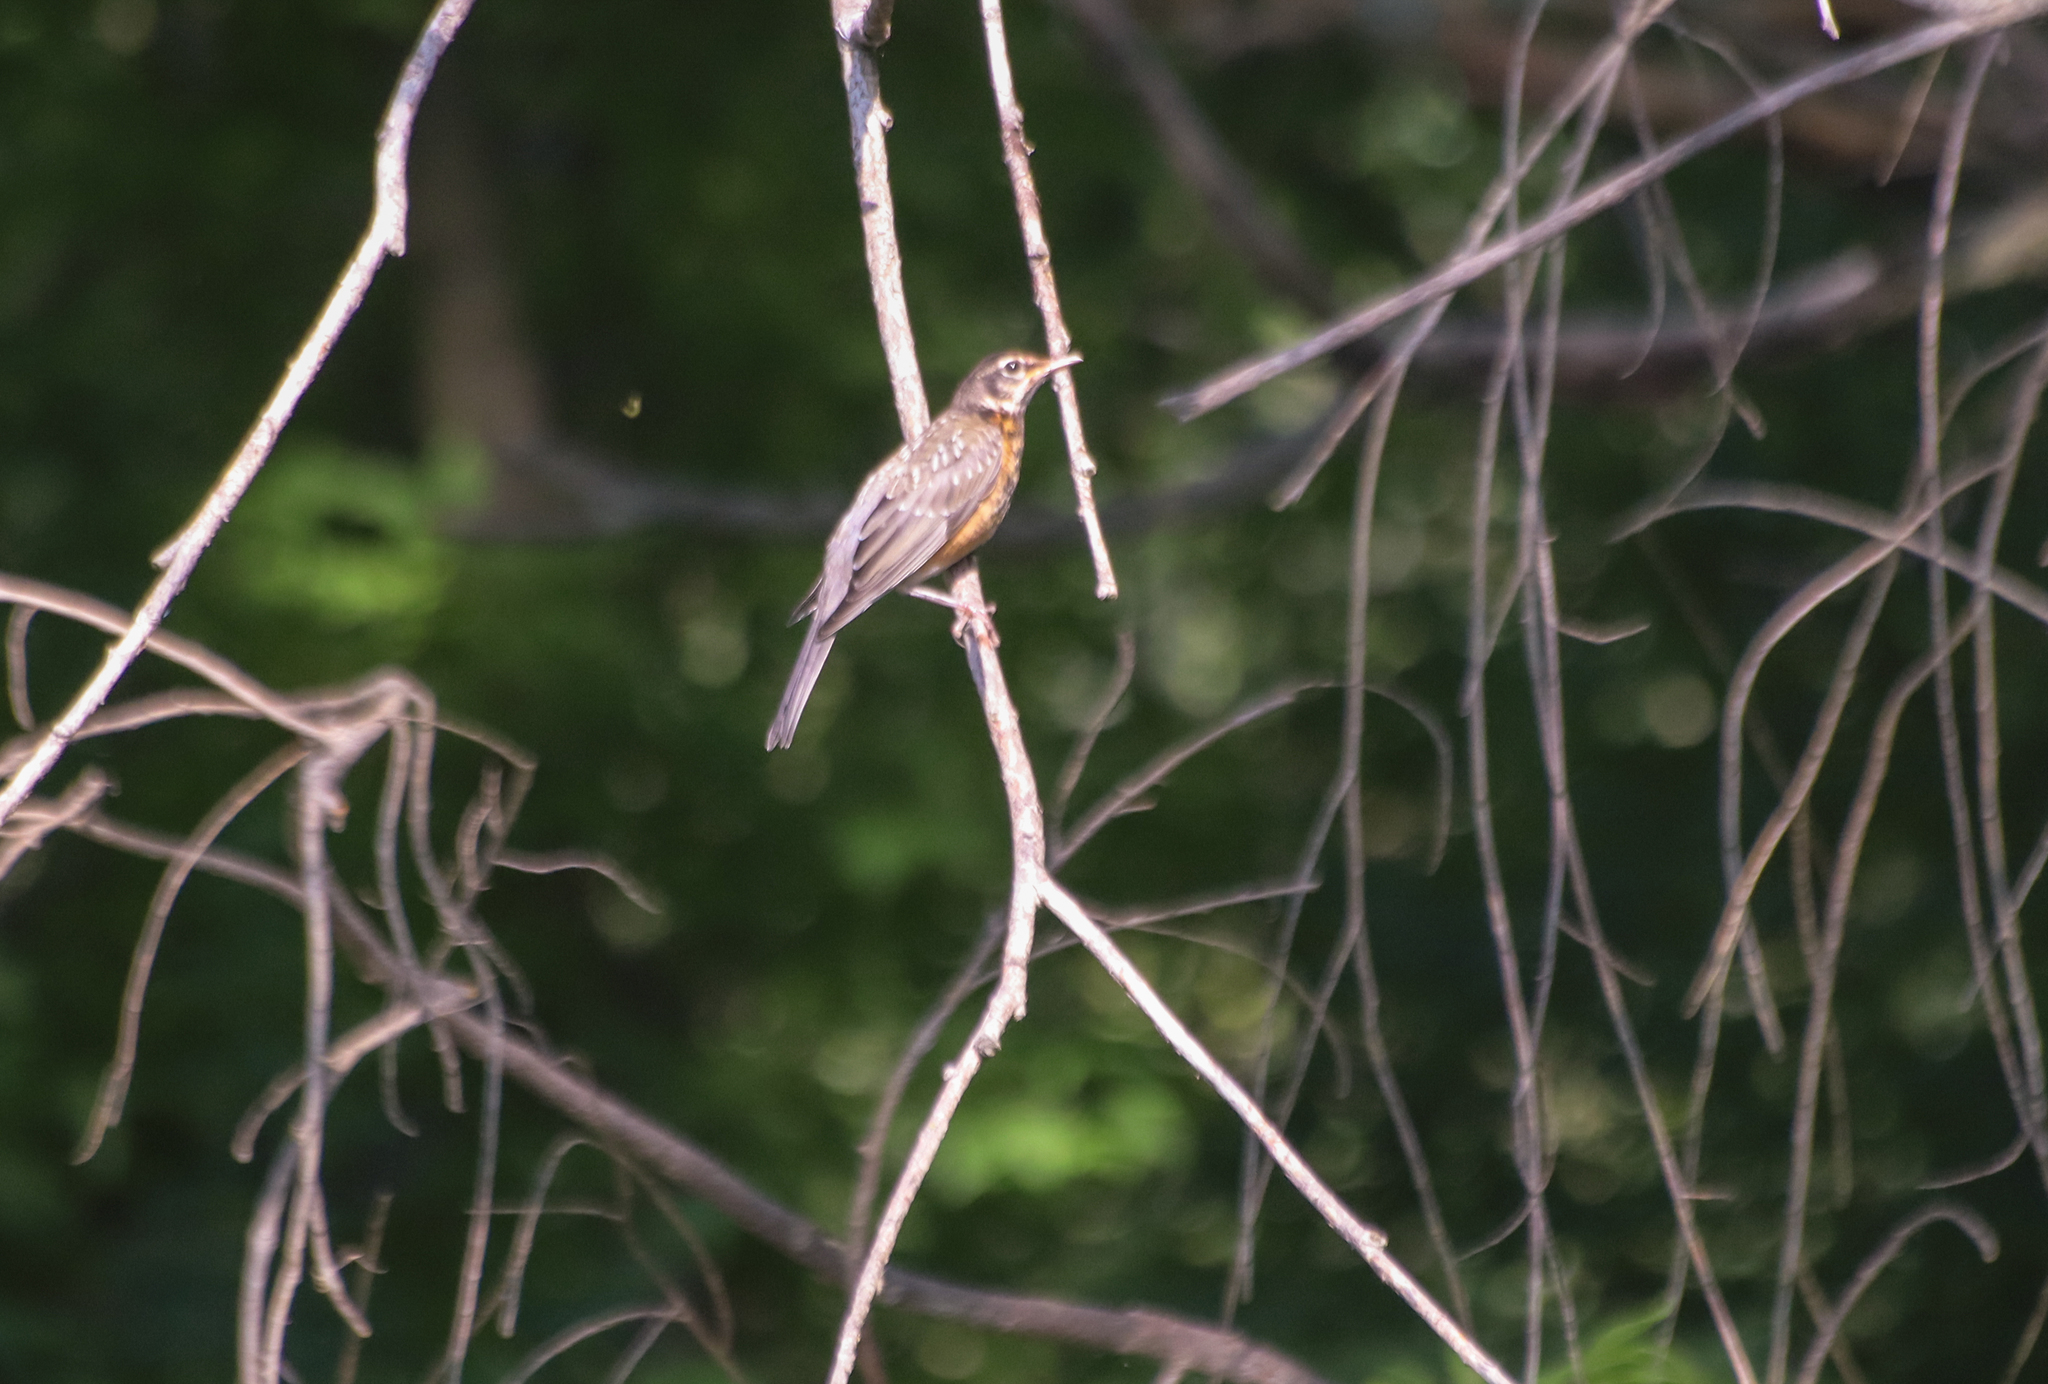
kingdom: Animalia
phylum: Chordata
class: Aves
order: Passeriformes
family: Turdidae
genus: Turdus
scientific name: Turdus migratorius
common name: American robin
